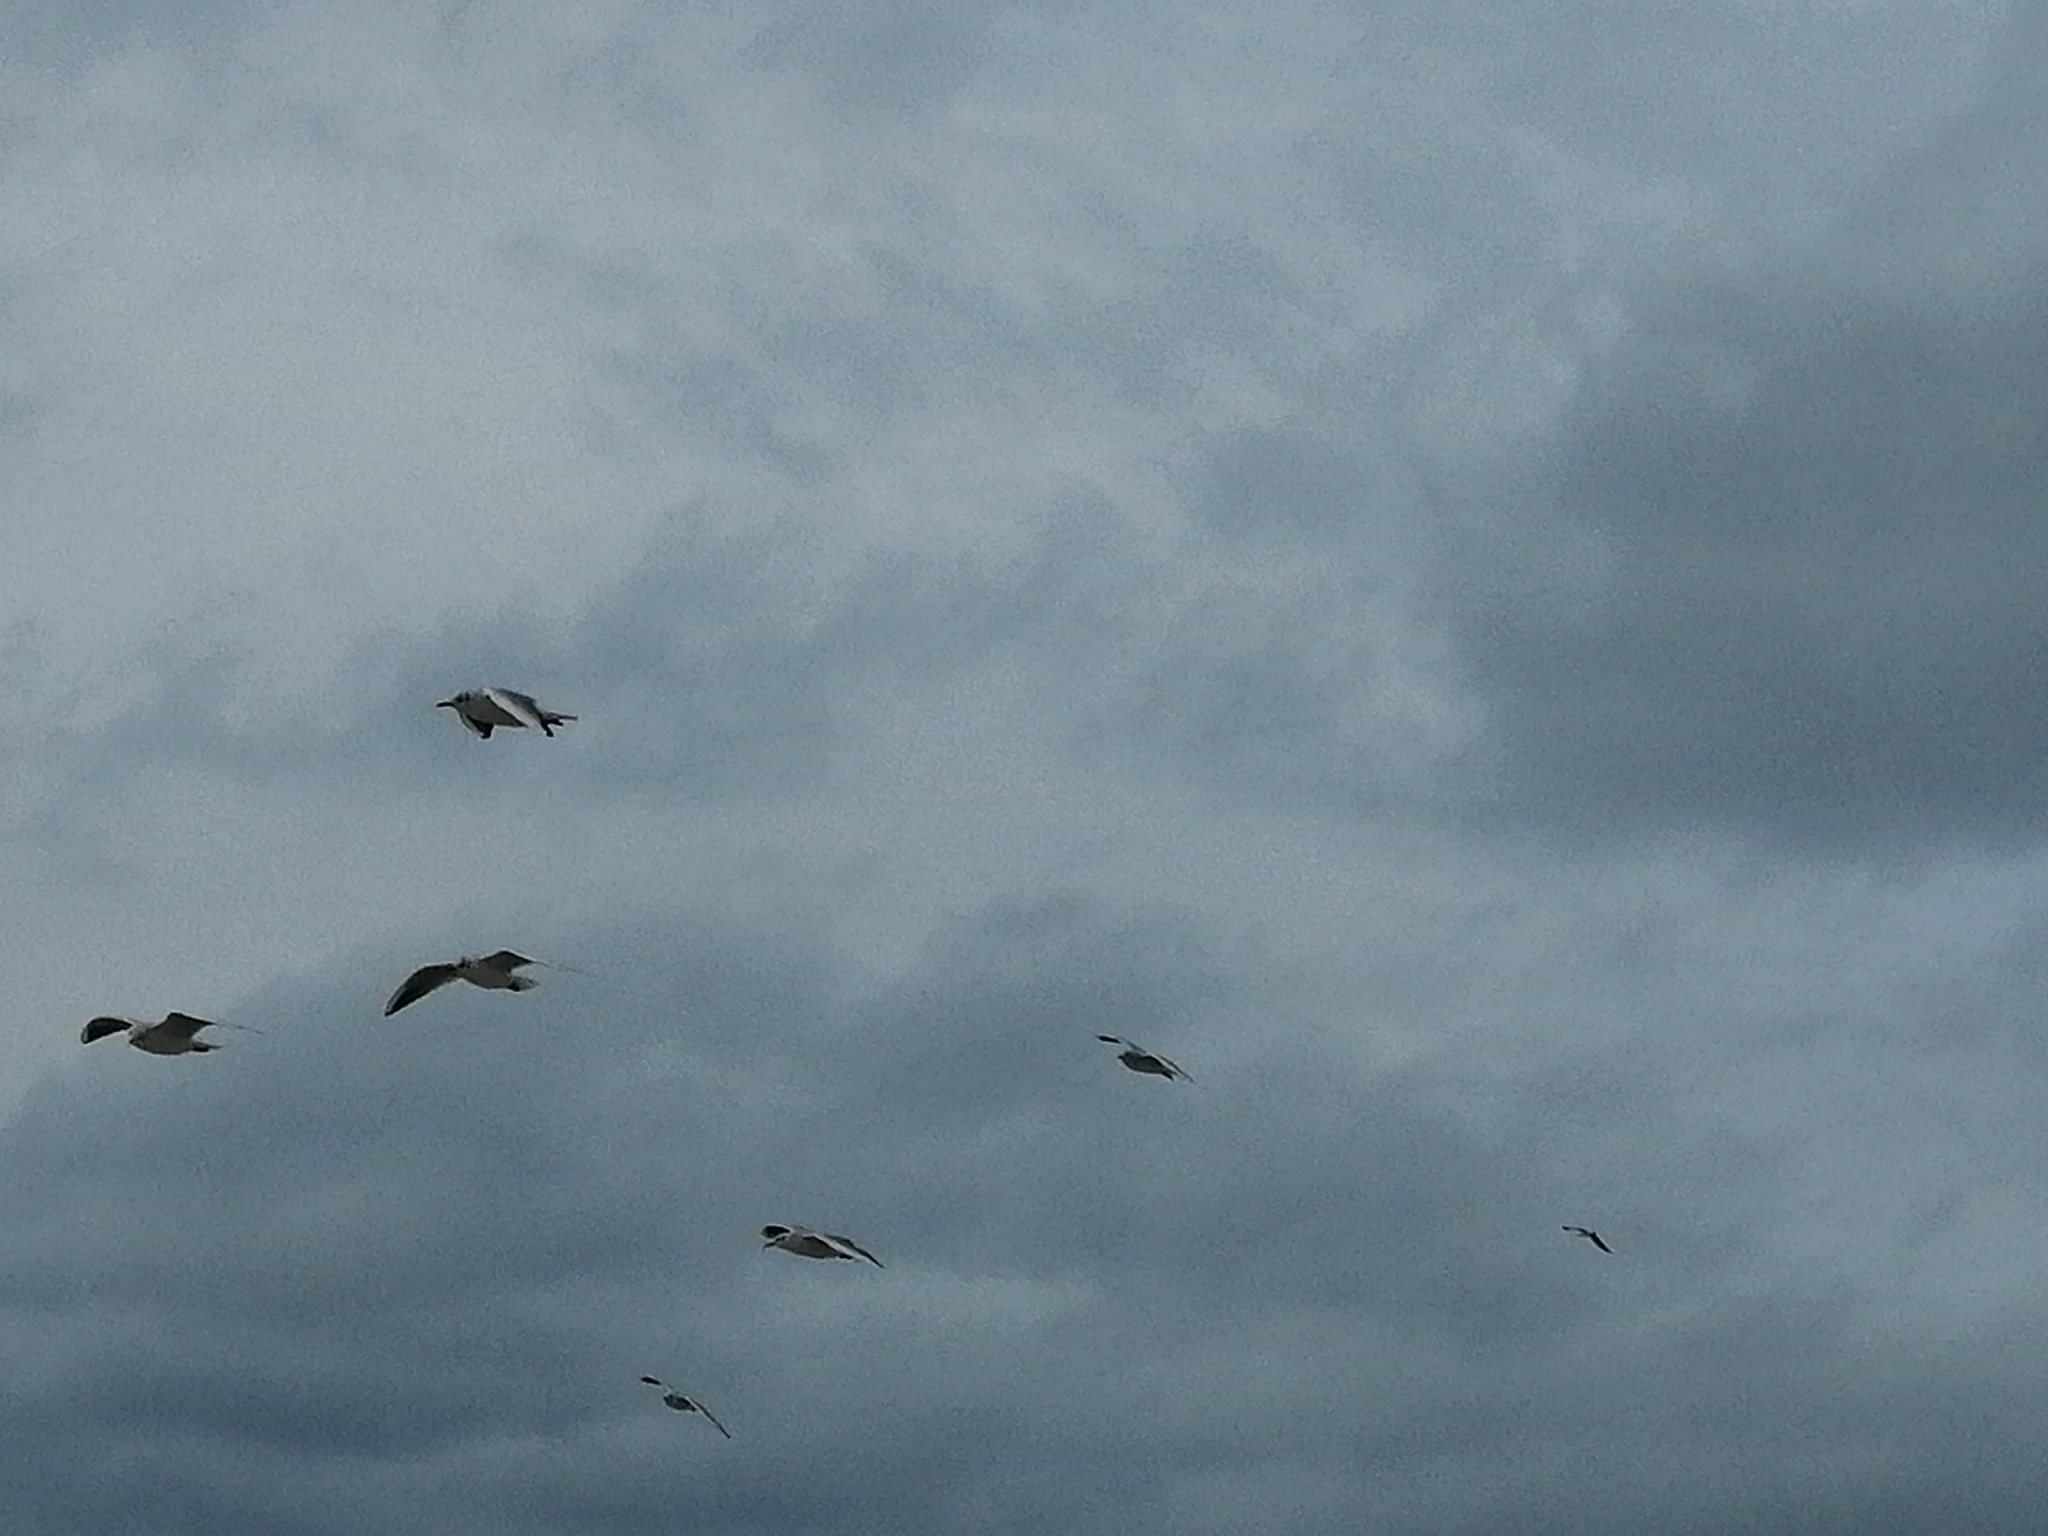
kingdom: Animalia
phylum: Chordata
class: Aves
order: Charadriiformes
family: Laridae
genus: Chroicocephalus
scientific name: Chroicocephalus ridibundus
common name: Black-headed gull
